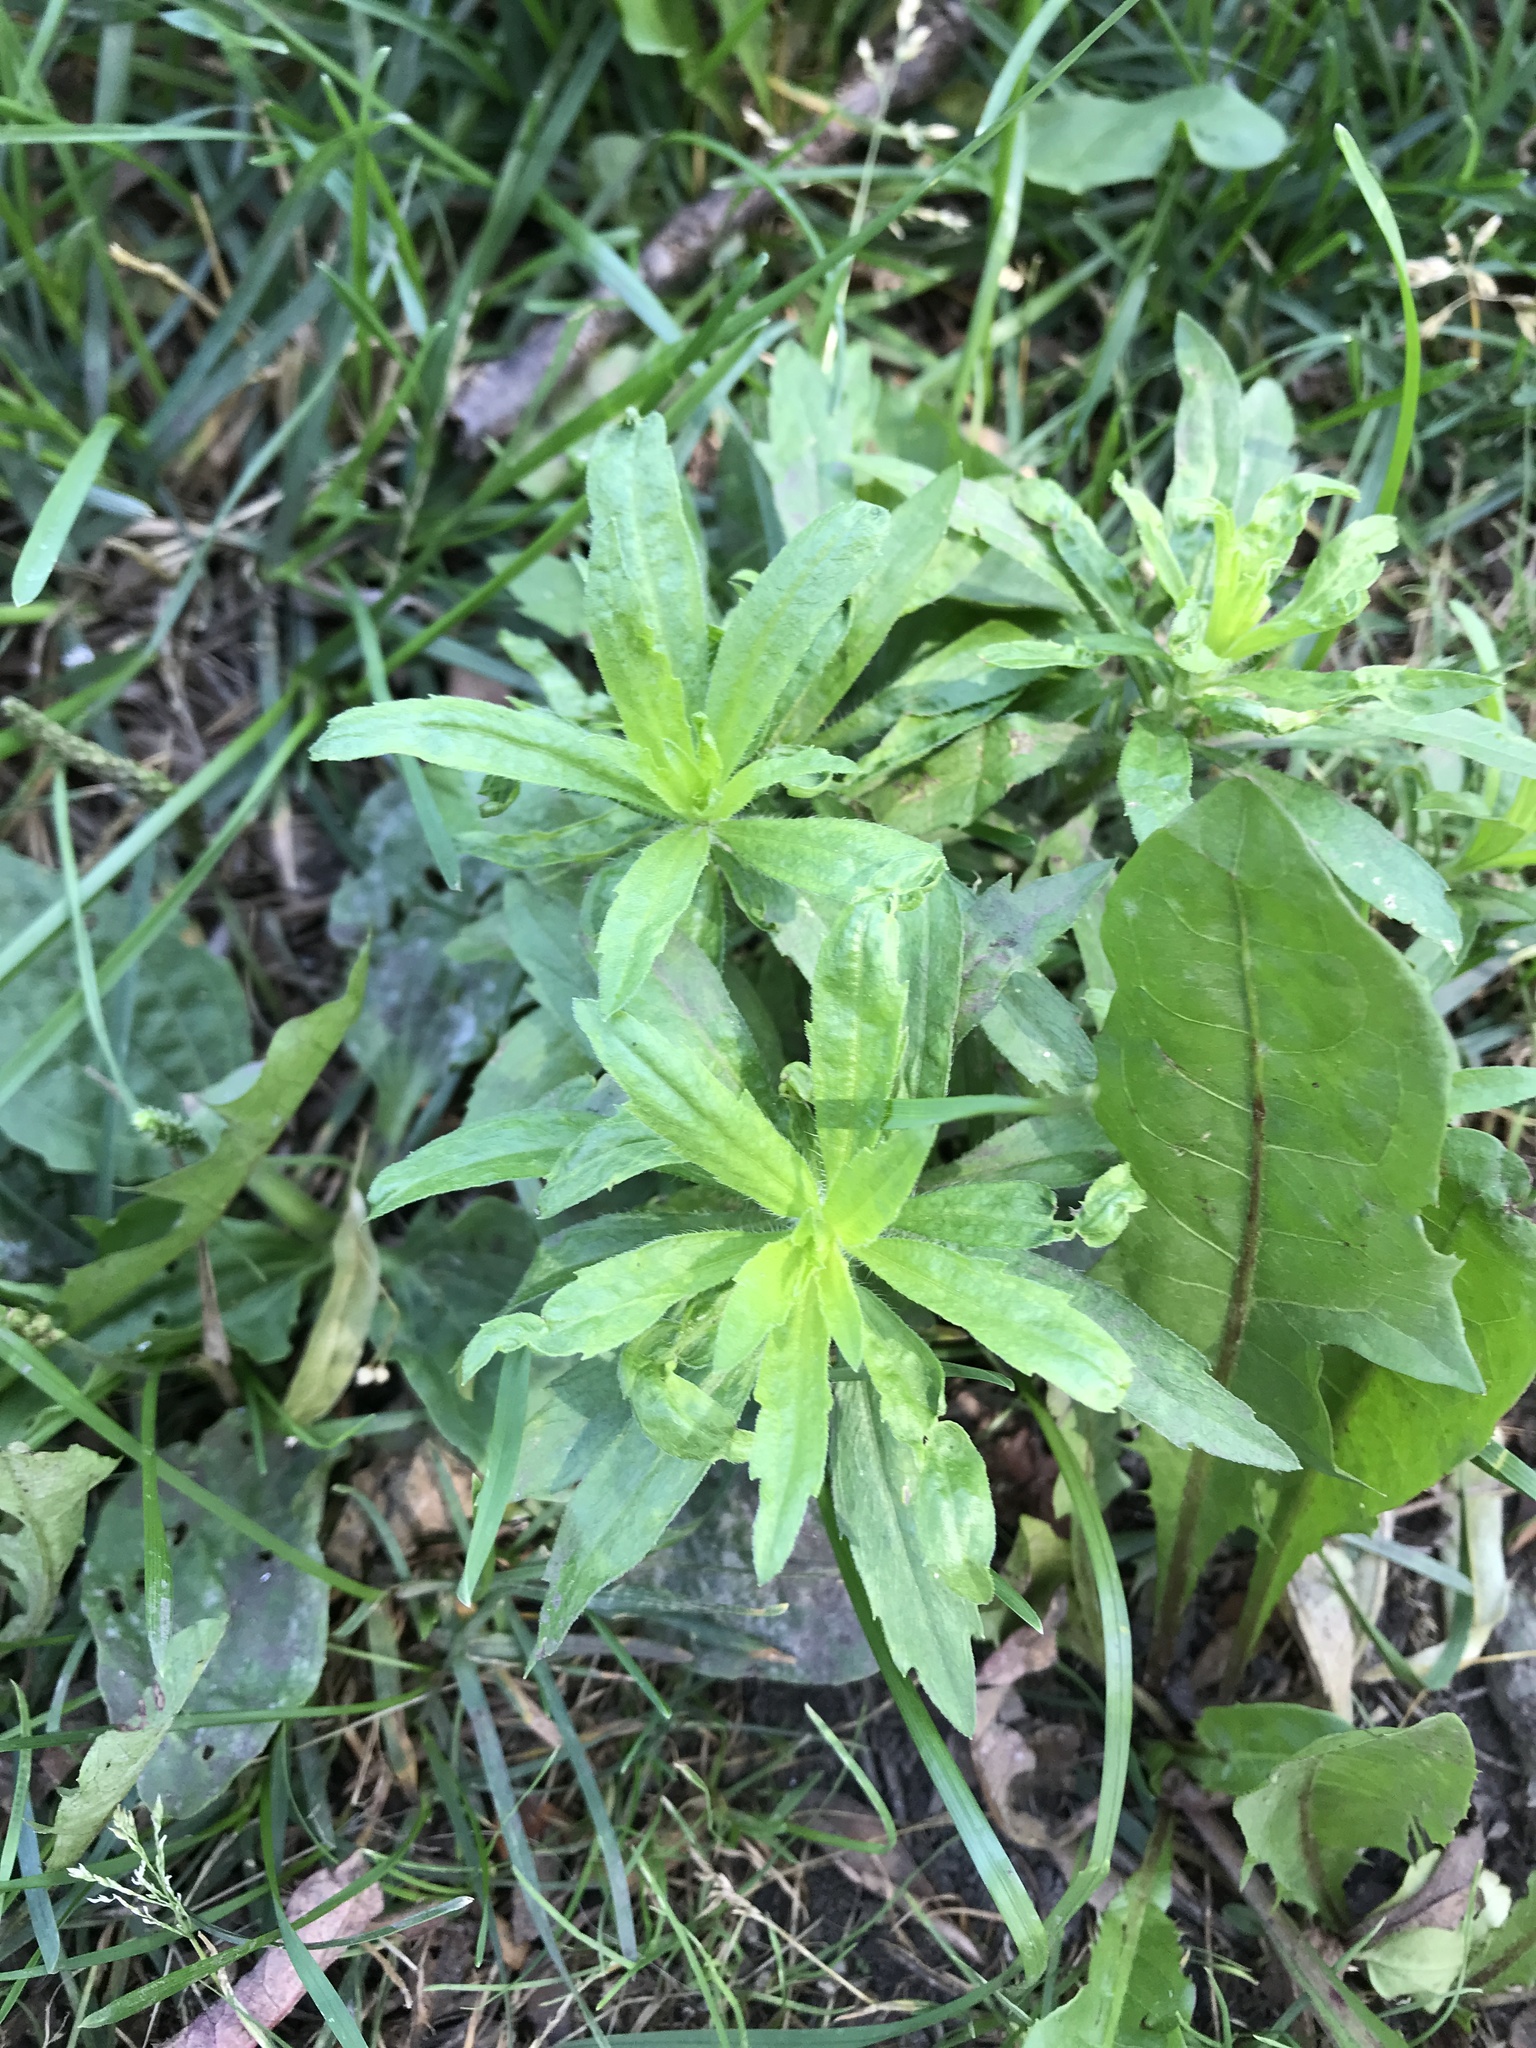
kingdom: Plantae
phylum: Tracheophyta
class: Magnoliopsida
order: Asterales
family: Asteraceae
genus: Erigeron
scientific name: Erigeron canadensis
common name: Canadian fleabane
